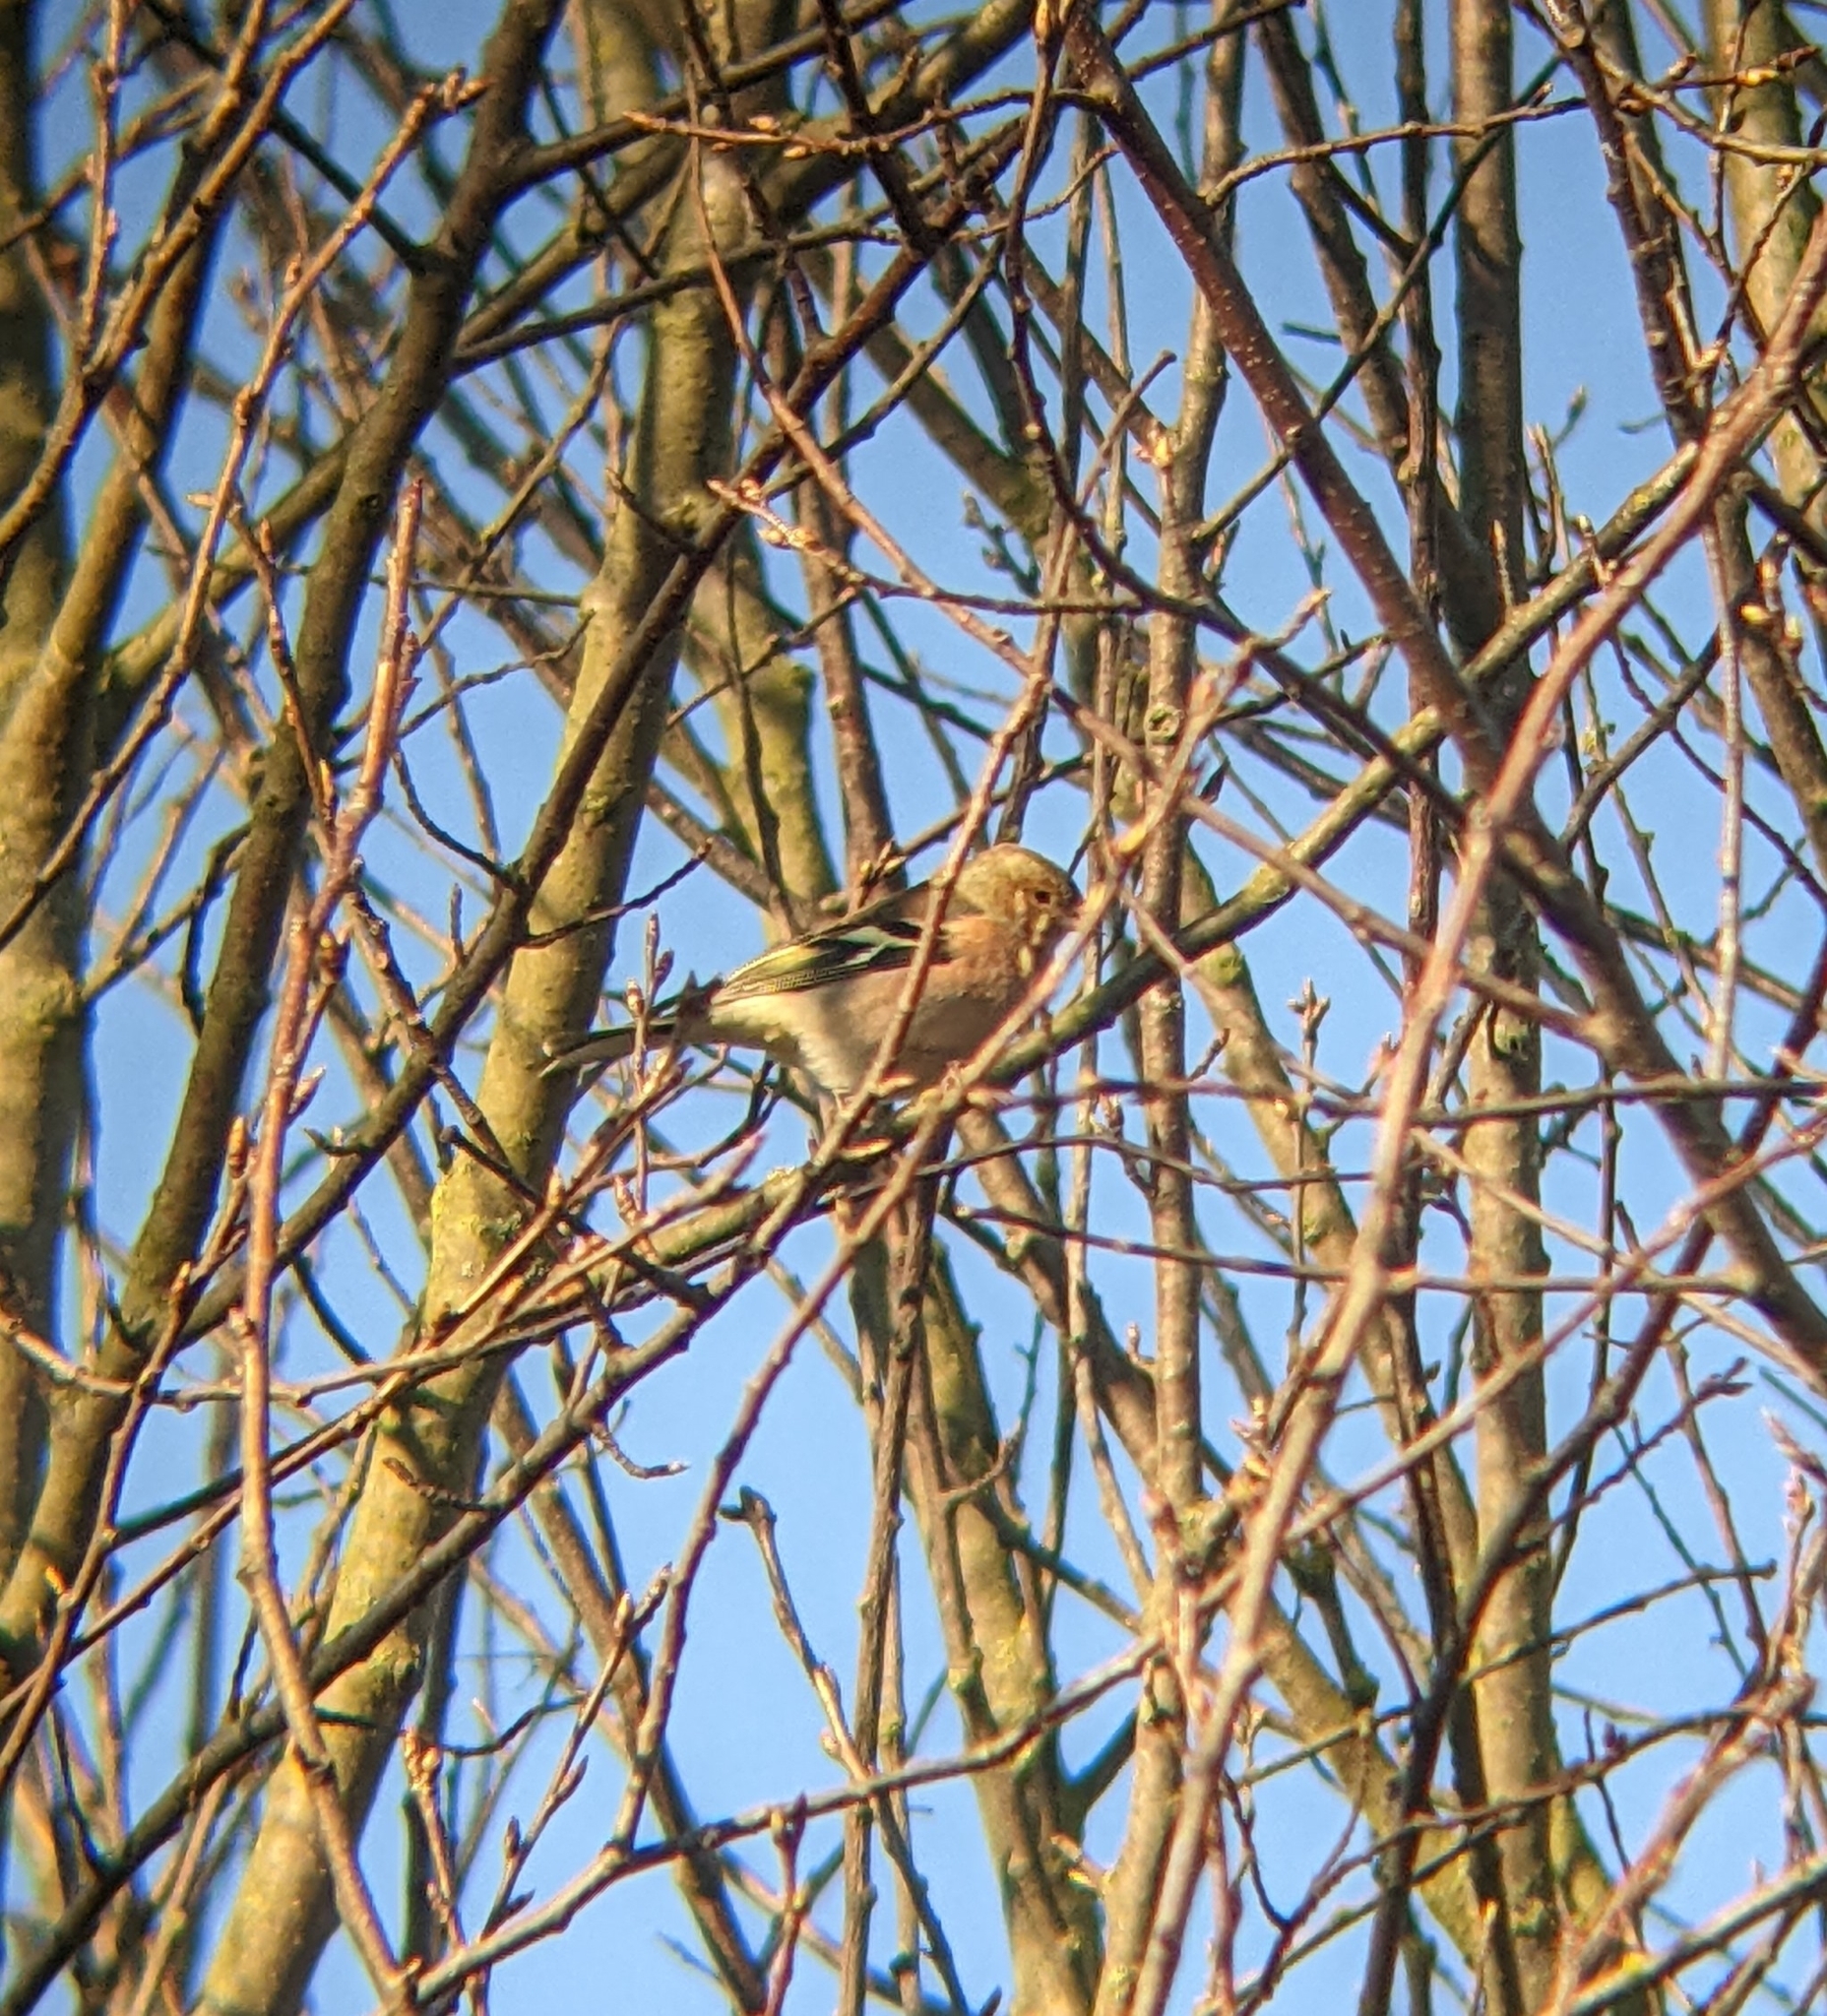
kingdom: Animalia
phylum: Chordata
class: Aves
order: Passeriformes
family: Fringillidae
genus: Fringilla
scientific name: Fringilla coelebs
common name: Common chaffinch
